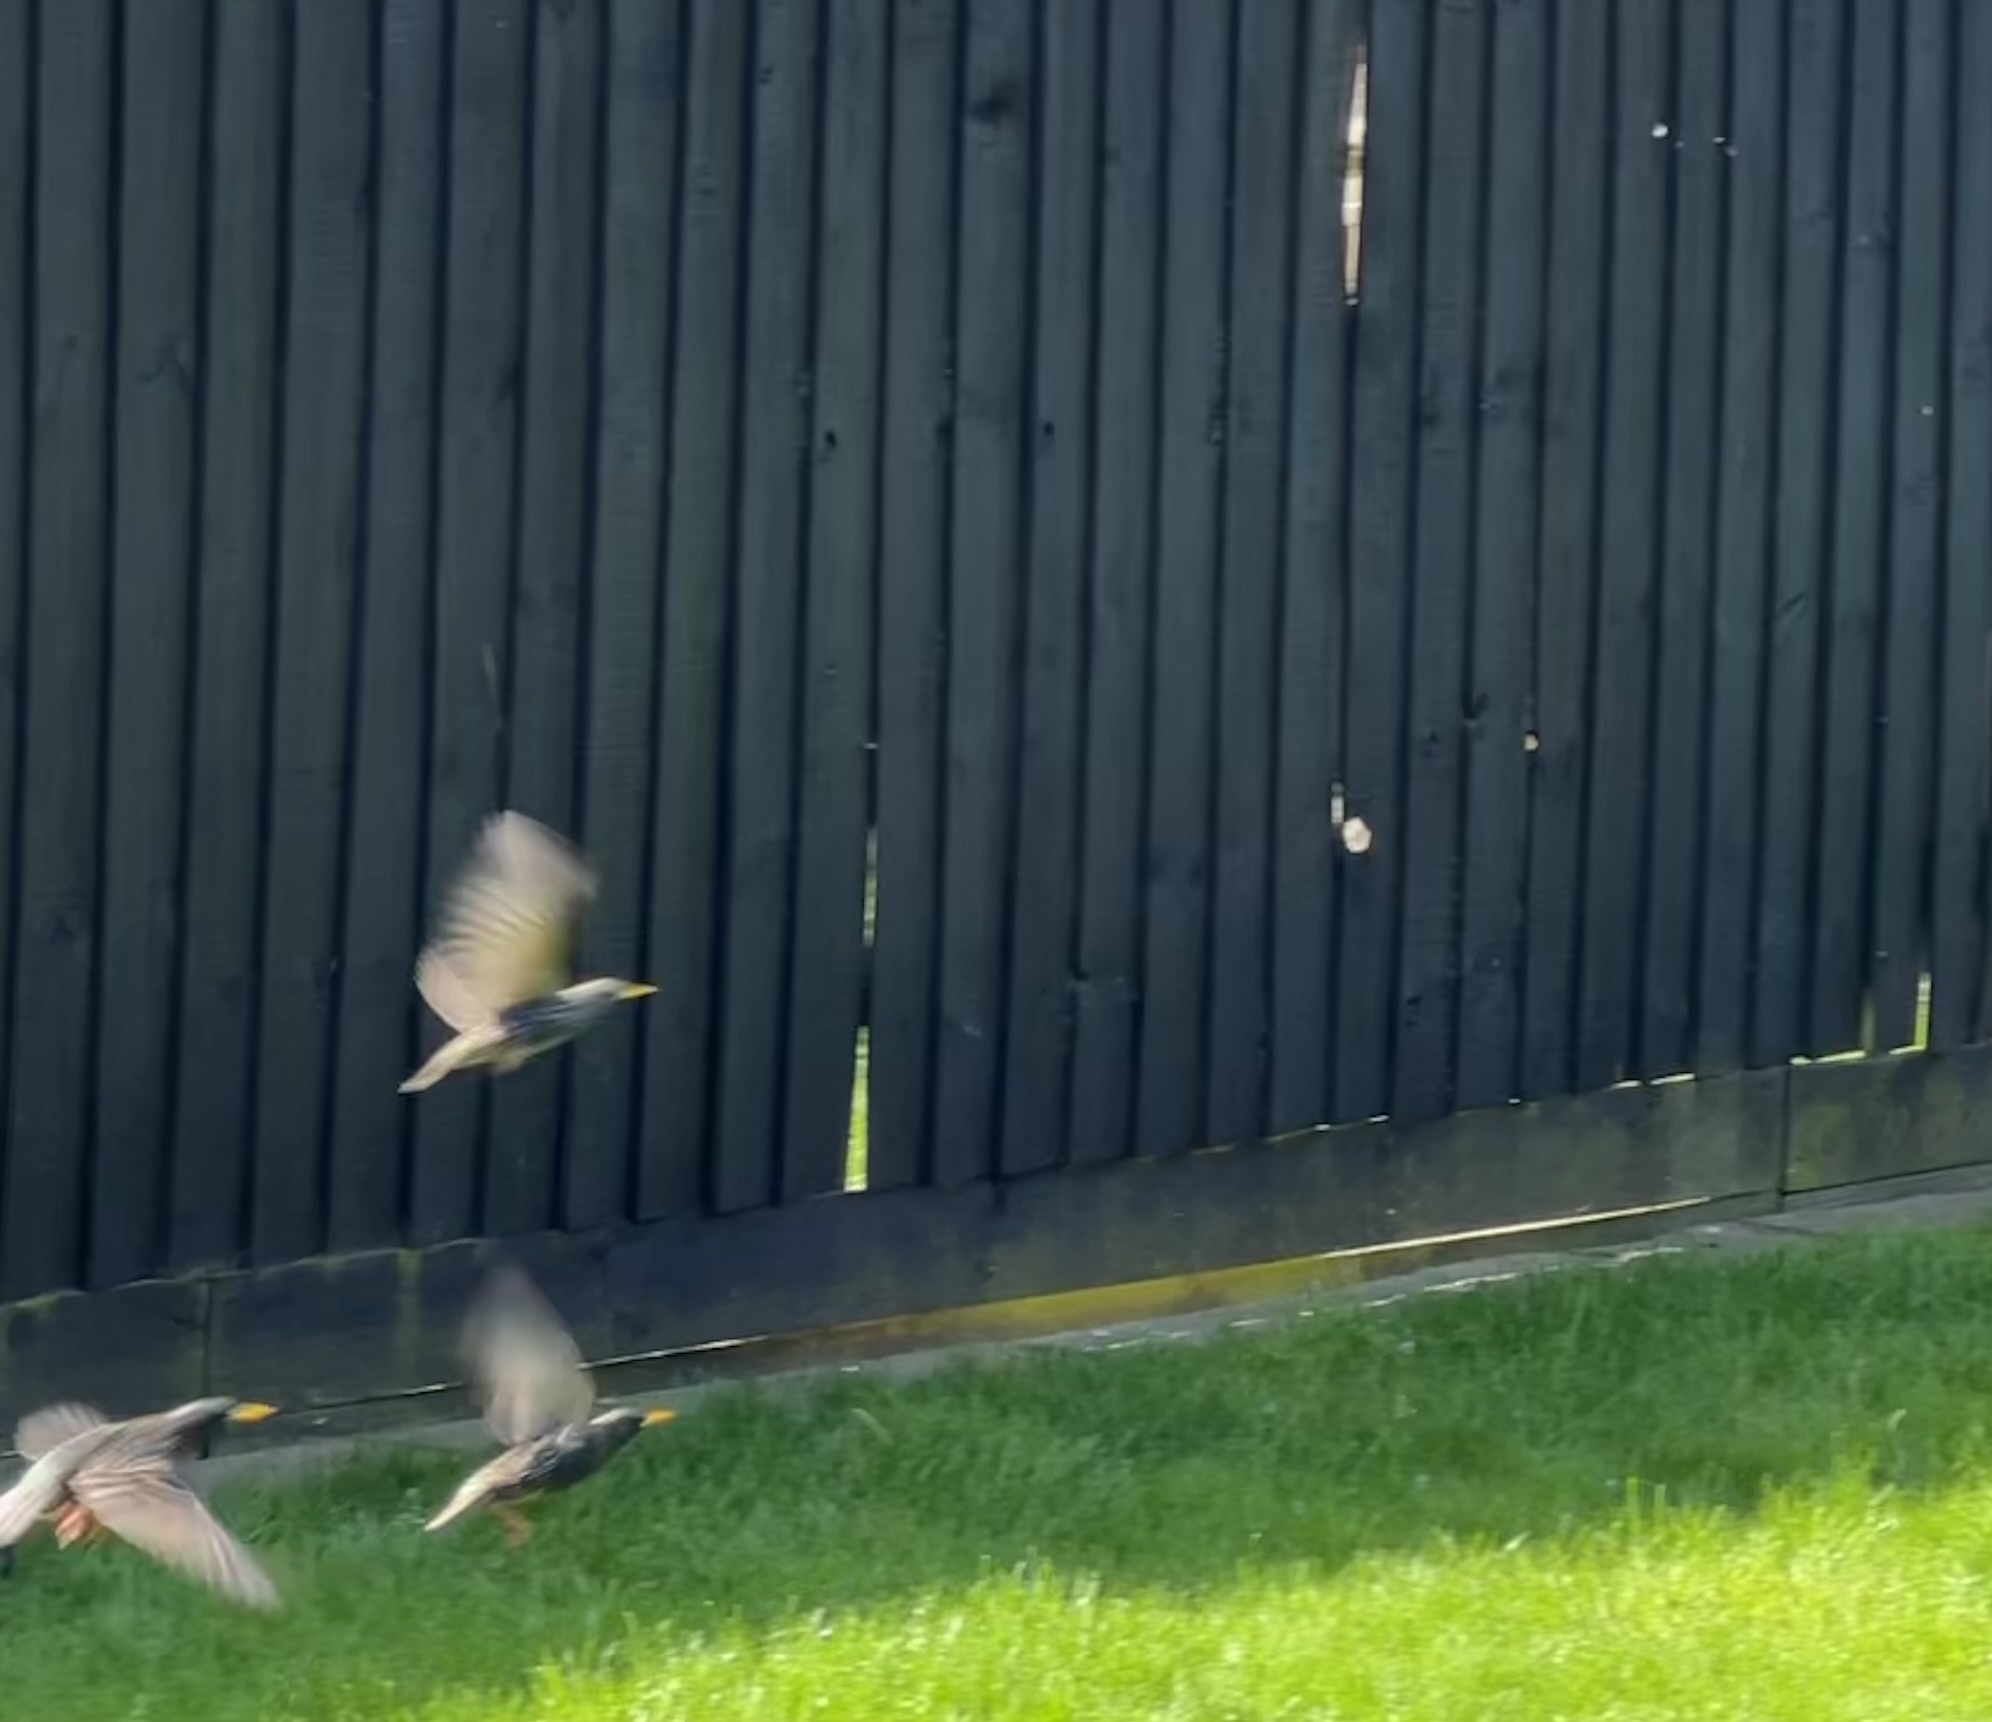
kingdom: Animalia
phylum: Chordata
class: Aves
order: Passeriformes
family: Sturnidae
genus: Sturnus
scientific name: Sturnus vulgaris
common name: Common starling
